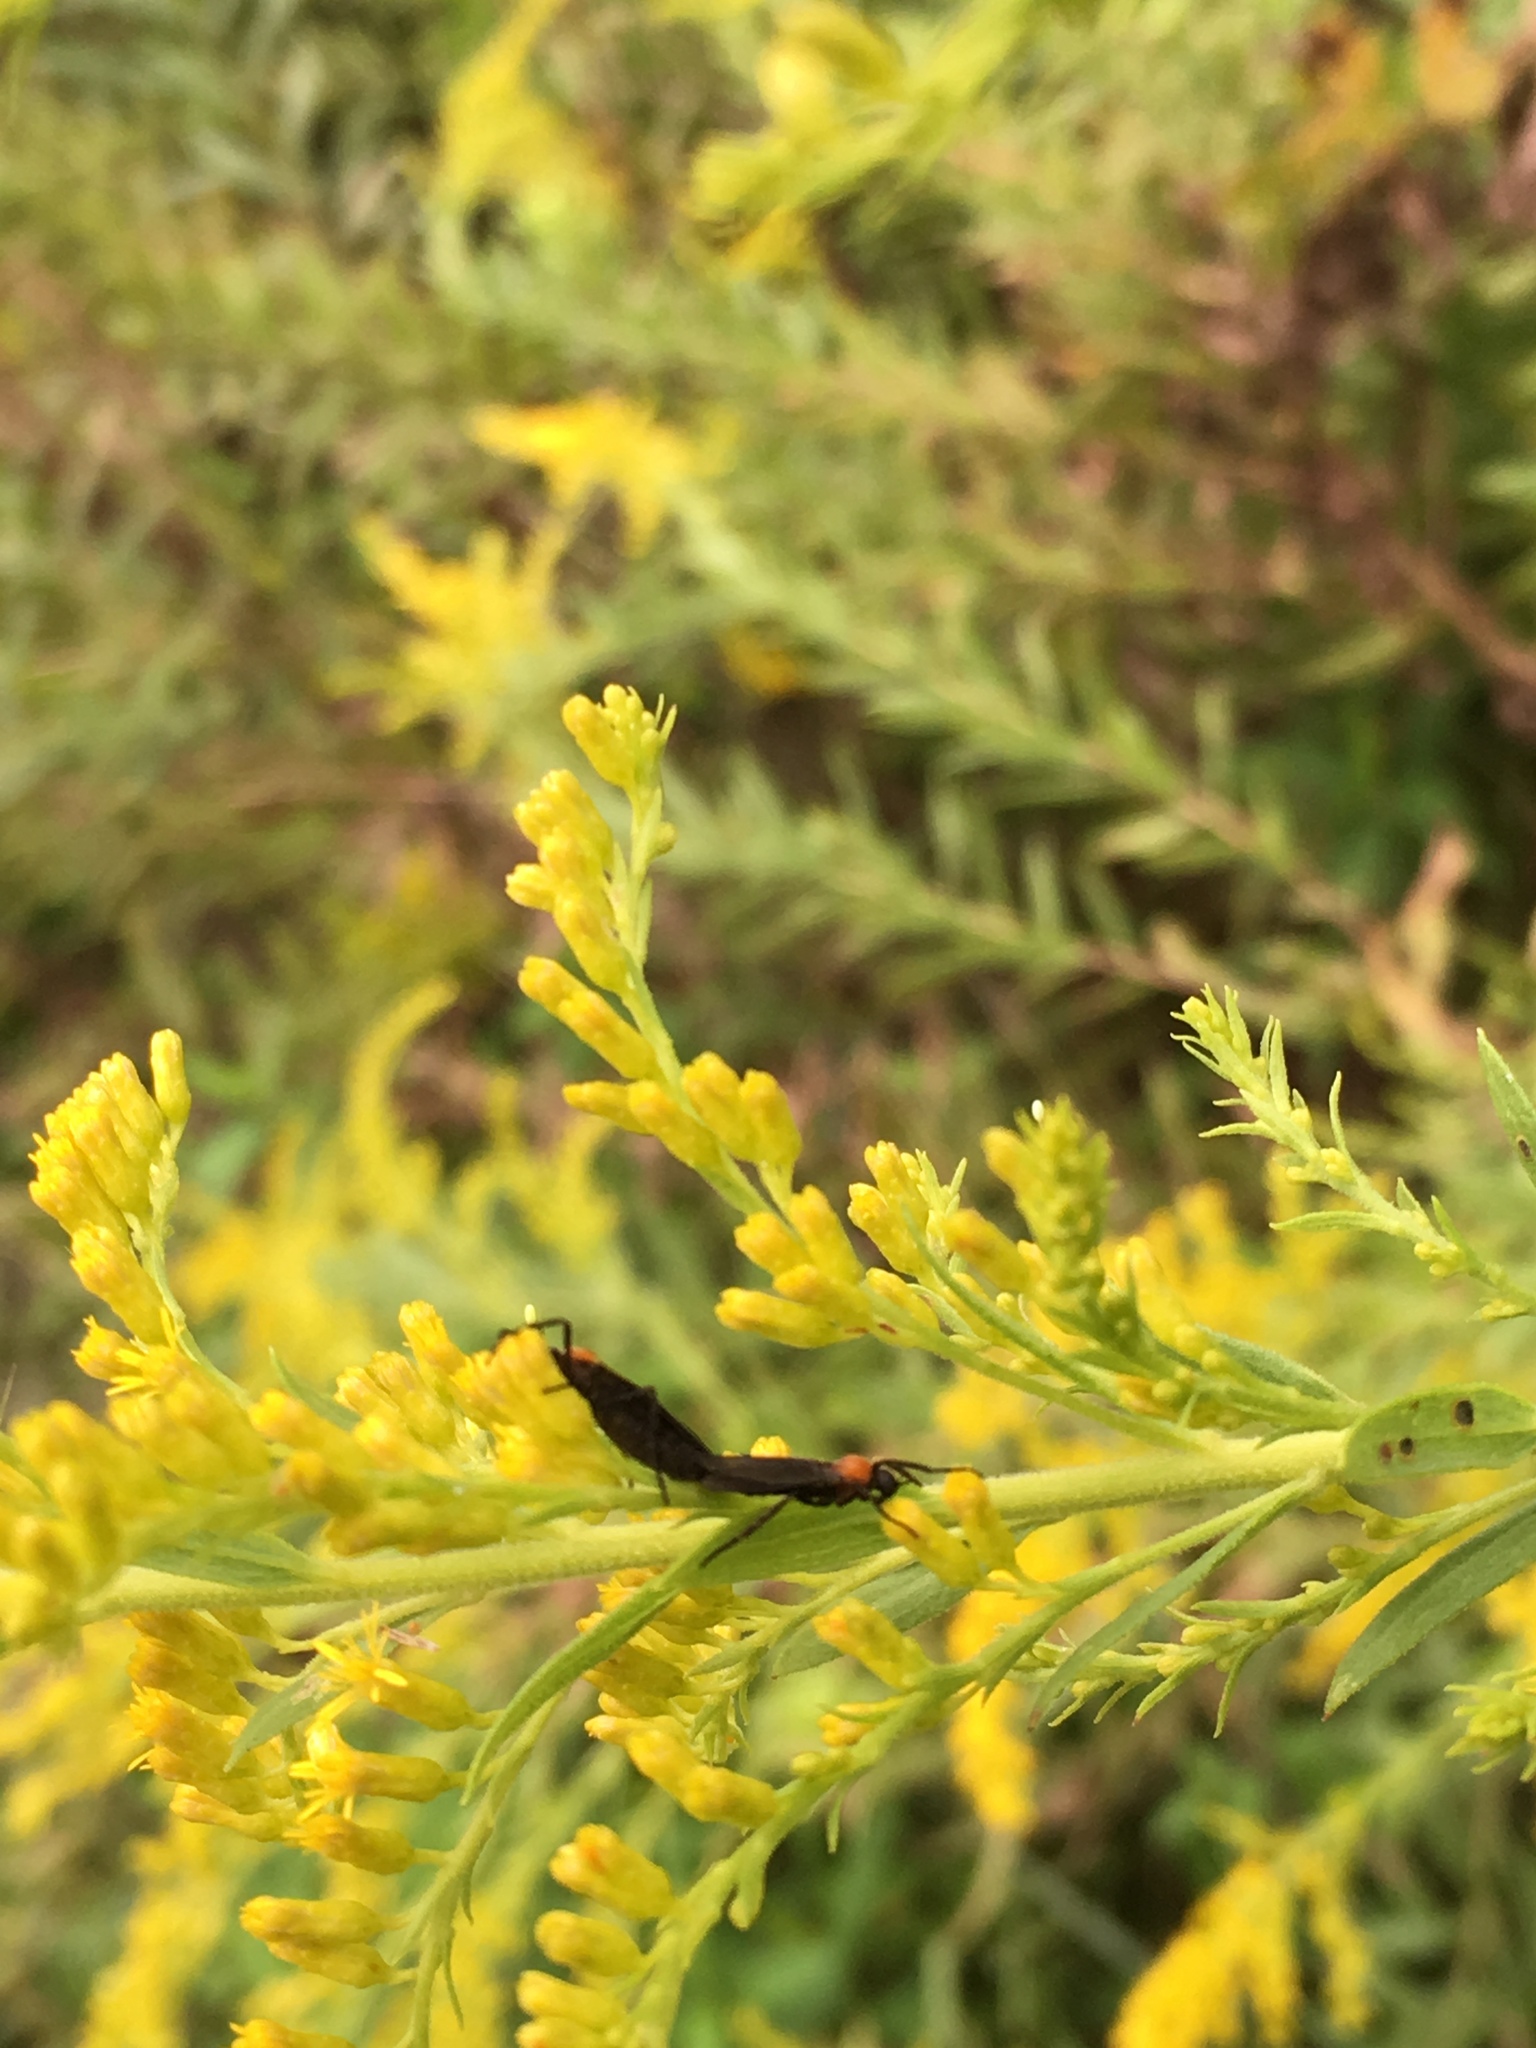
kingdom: Animalia
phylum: Arthropoda
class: Insecta
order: Diptera
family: Bibionidae
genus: Plecia
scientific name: Plecia nearctica
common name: March fly
